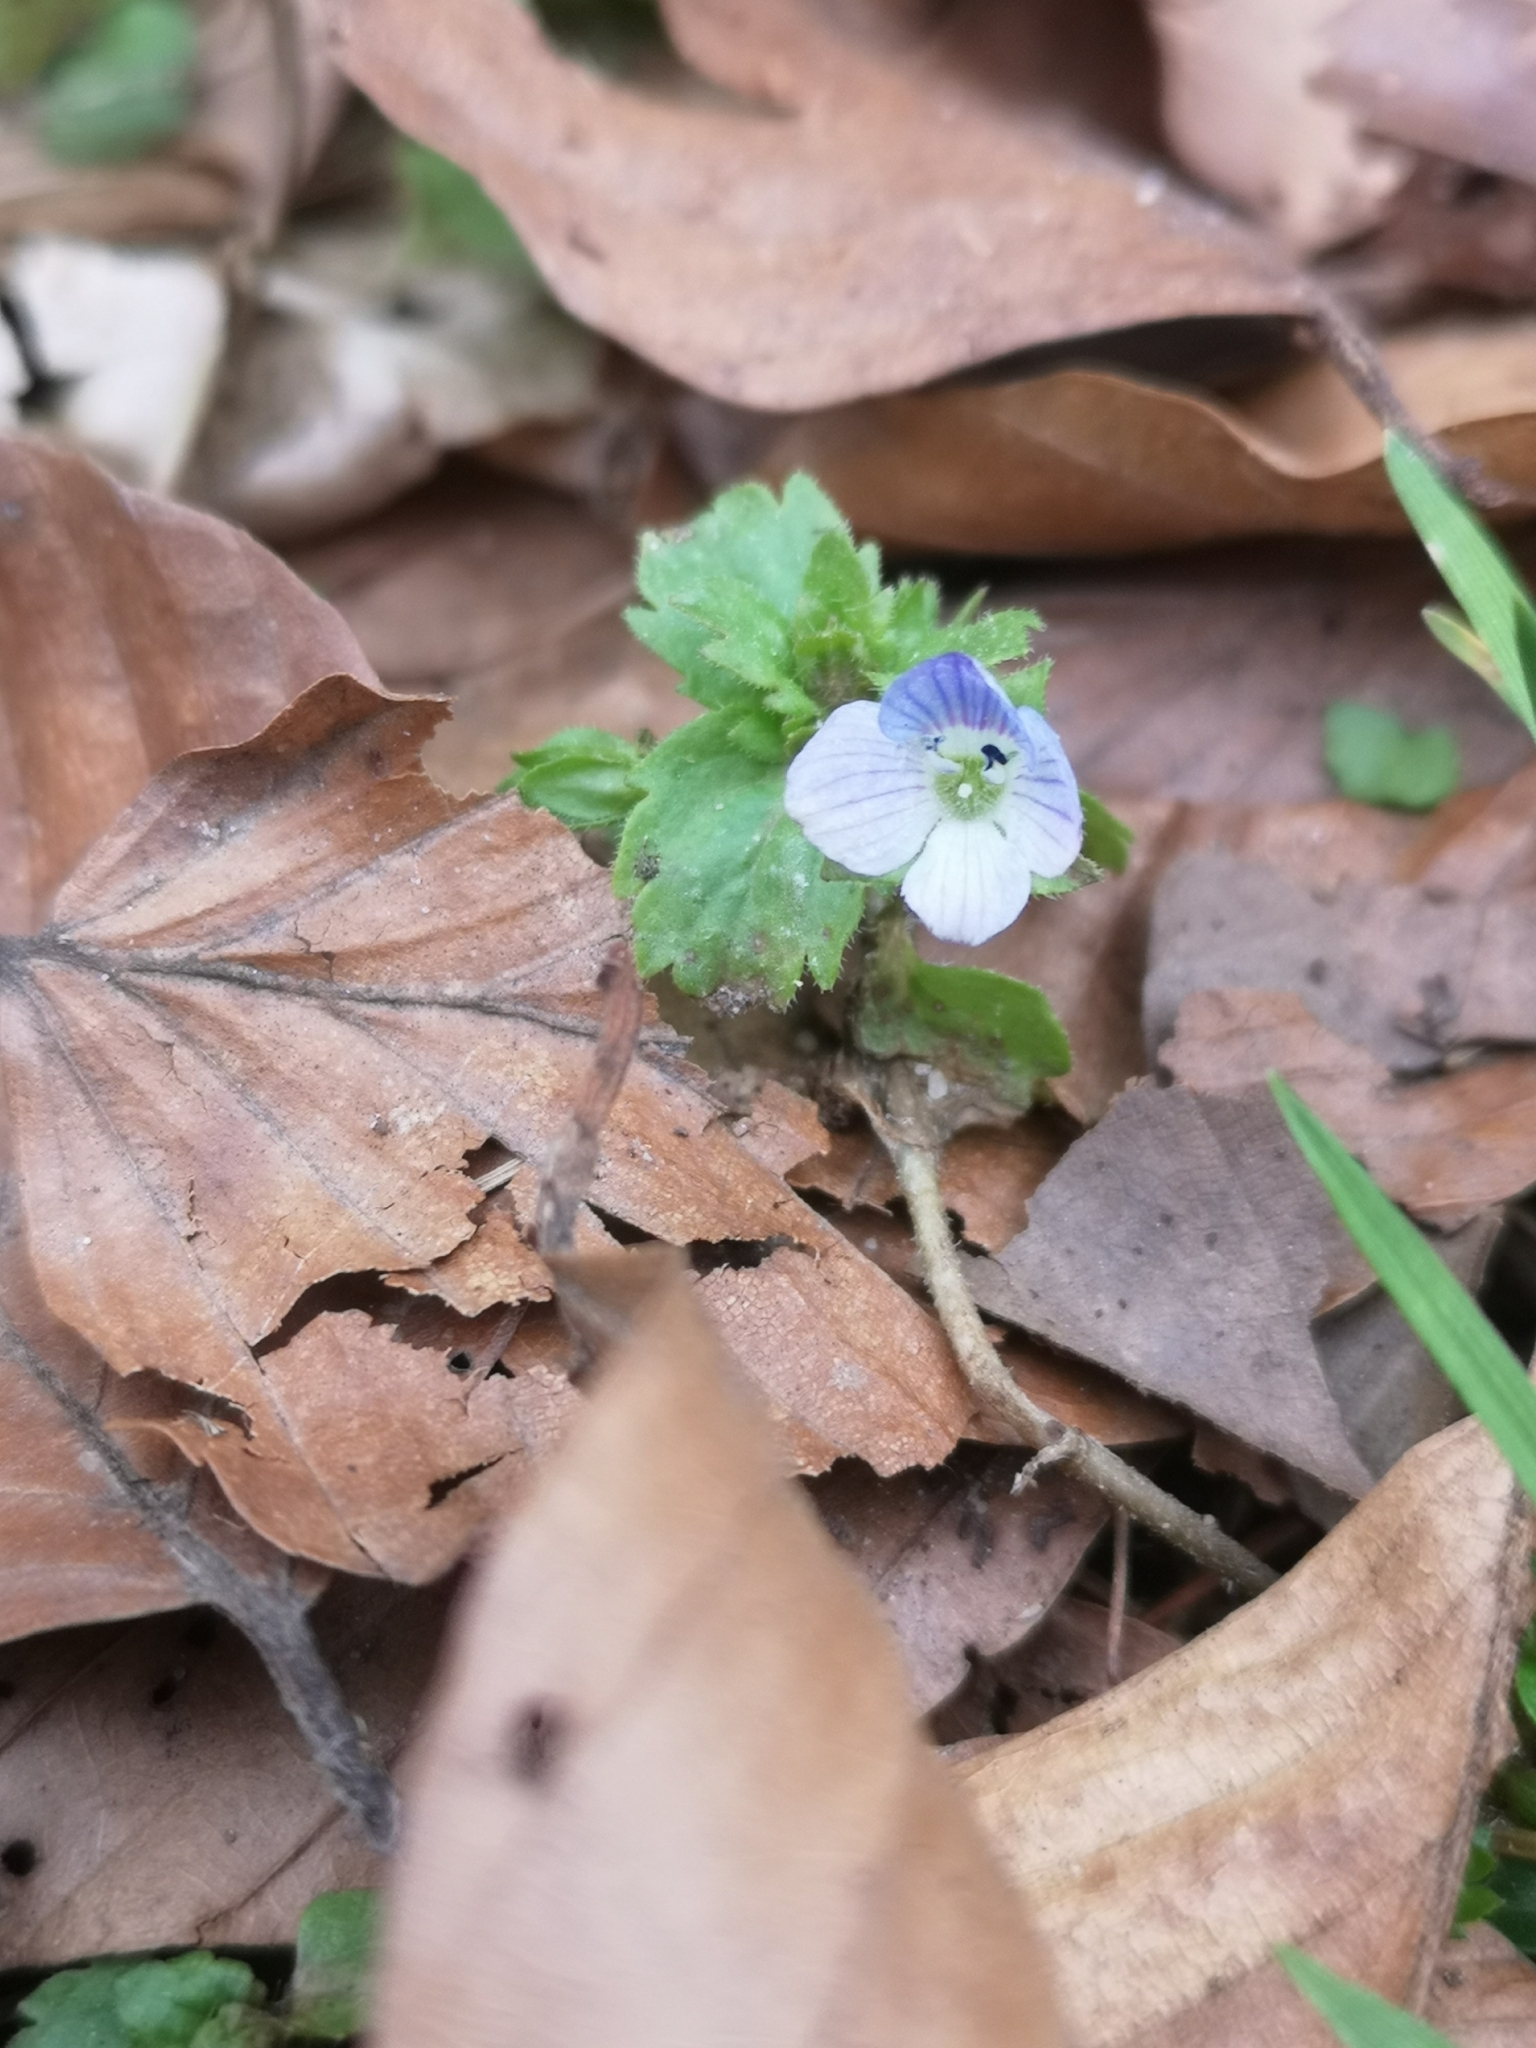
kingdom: Plantae
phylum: Tracheophyta
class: Magnoliopsida
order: Lamiales
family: Plantaginaceae
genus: Veronica
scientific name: Veronica persica
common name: Common field-speedwell
